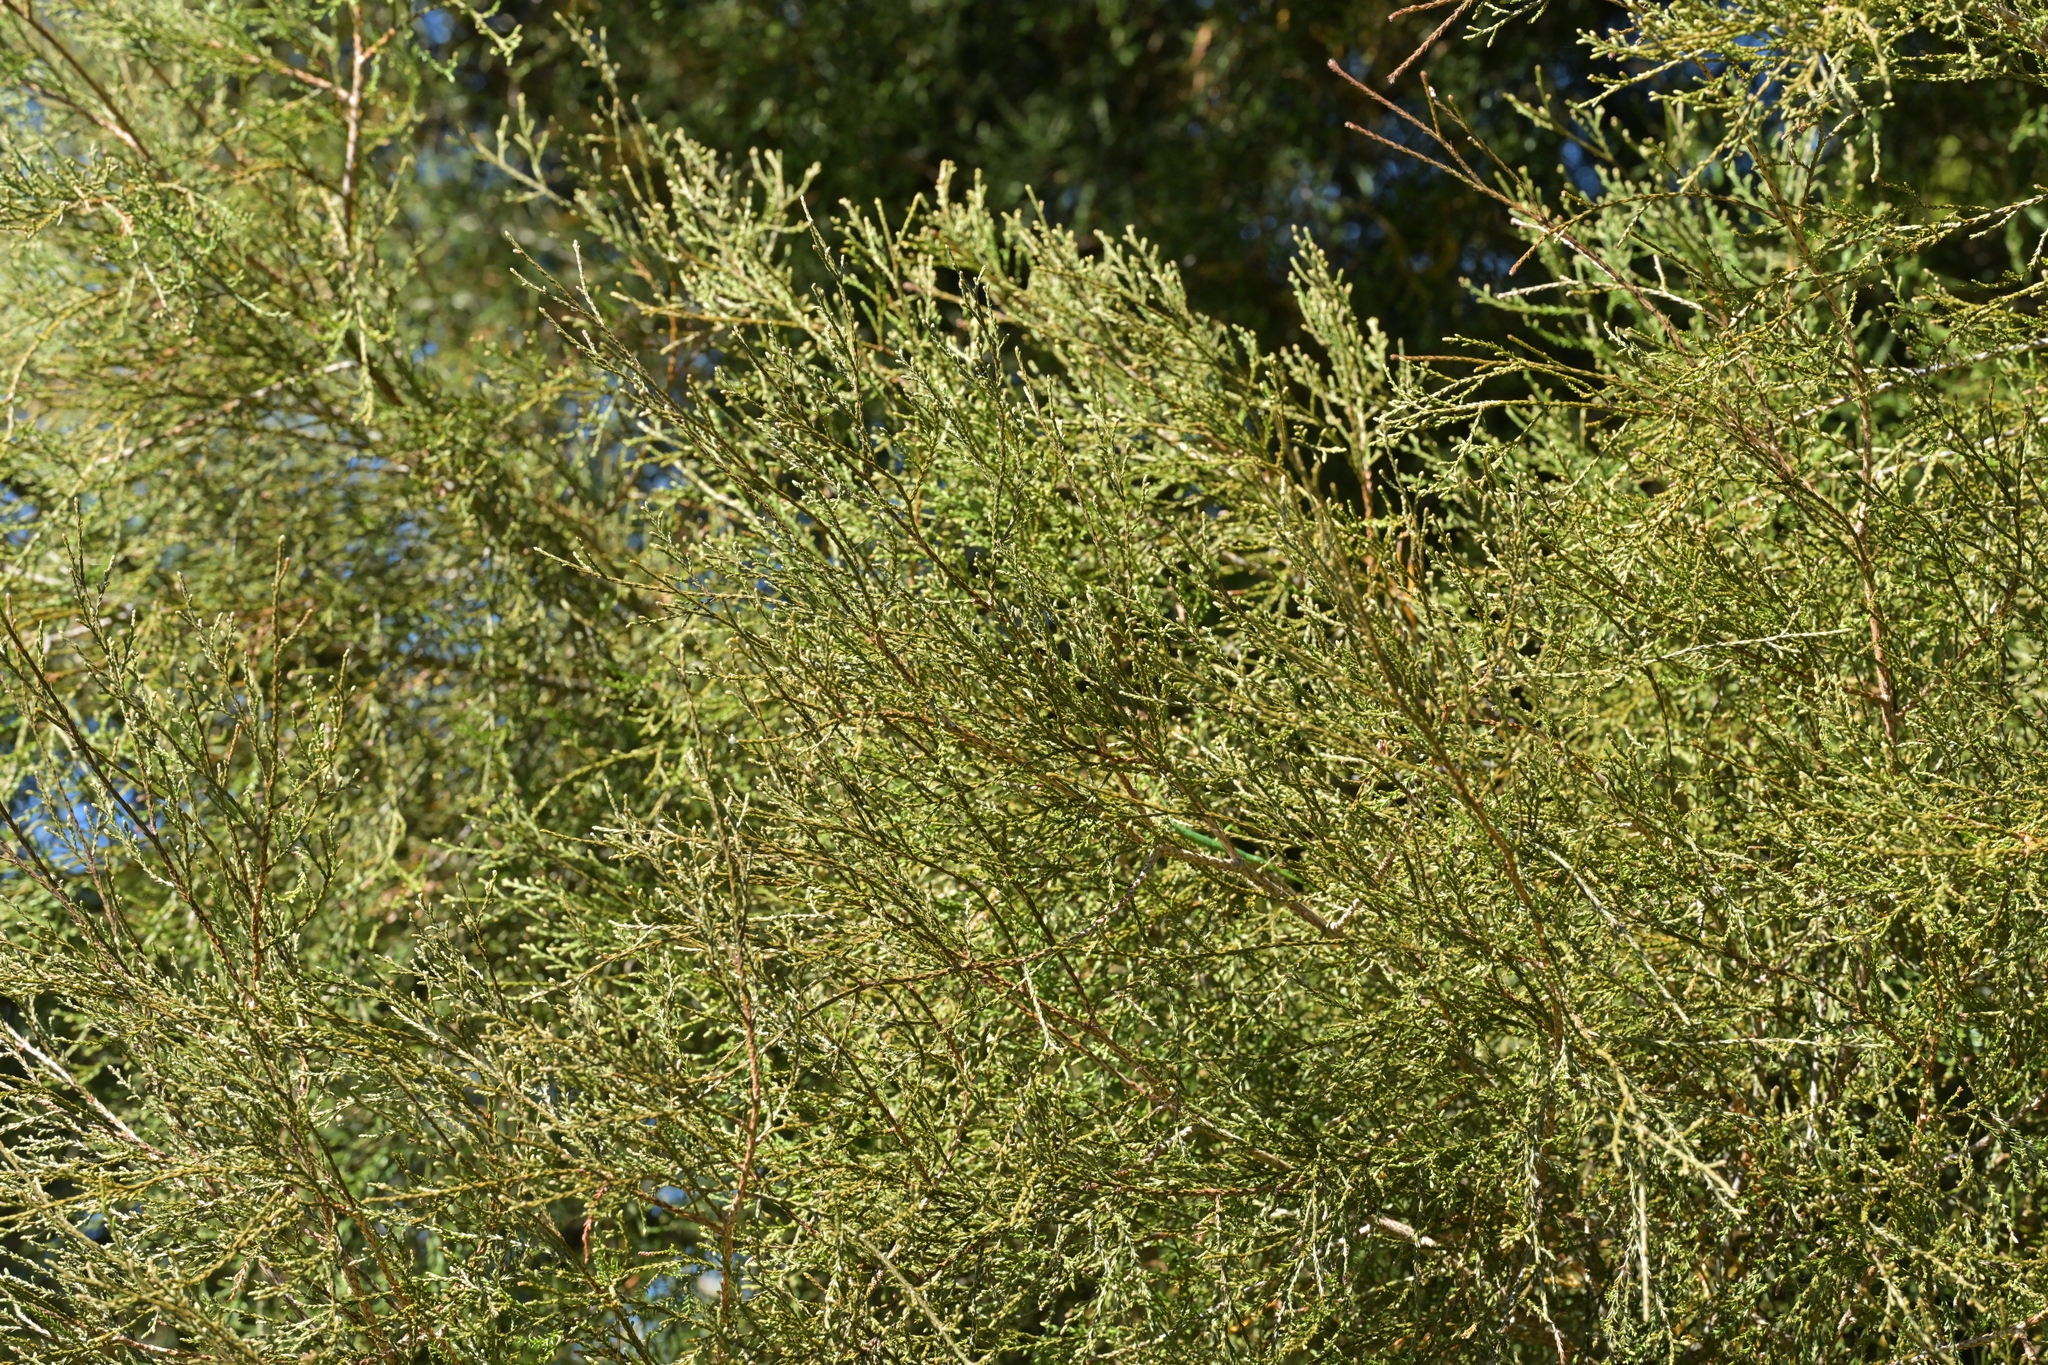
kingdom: Plantae
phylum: Tracheophyta
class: Pinopsida
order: Pinales
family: Podocarpaceae
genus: Dacrycarpus
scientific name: Dacrycarpus dacrydioides
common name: White pine
